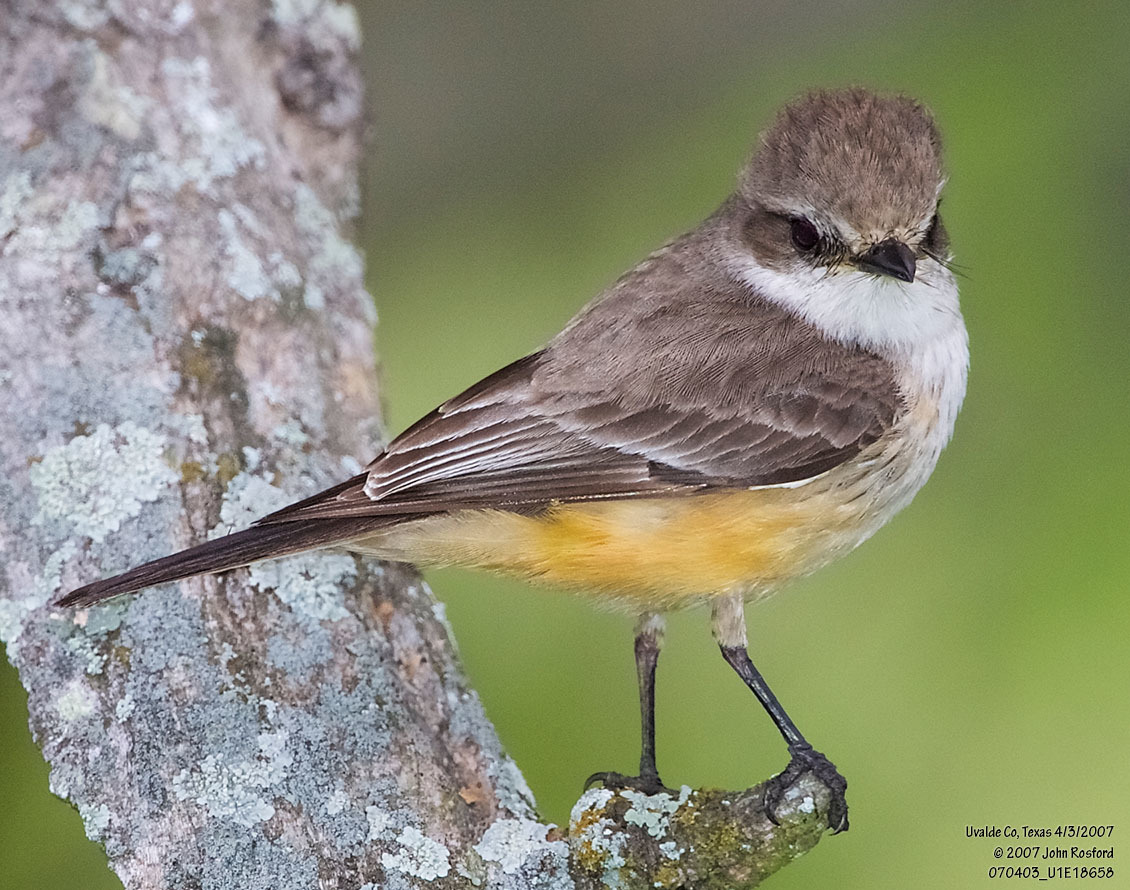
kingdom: Animalia
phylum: Chordata
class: Aves
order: Passeriformes
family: Tyrannidae
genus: Pyrocephalus
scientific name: Pyrocephalus rubinus
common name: Vermilion flycatcher
